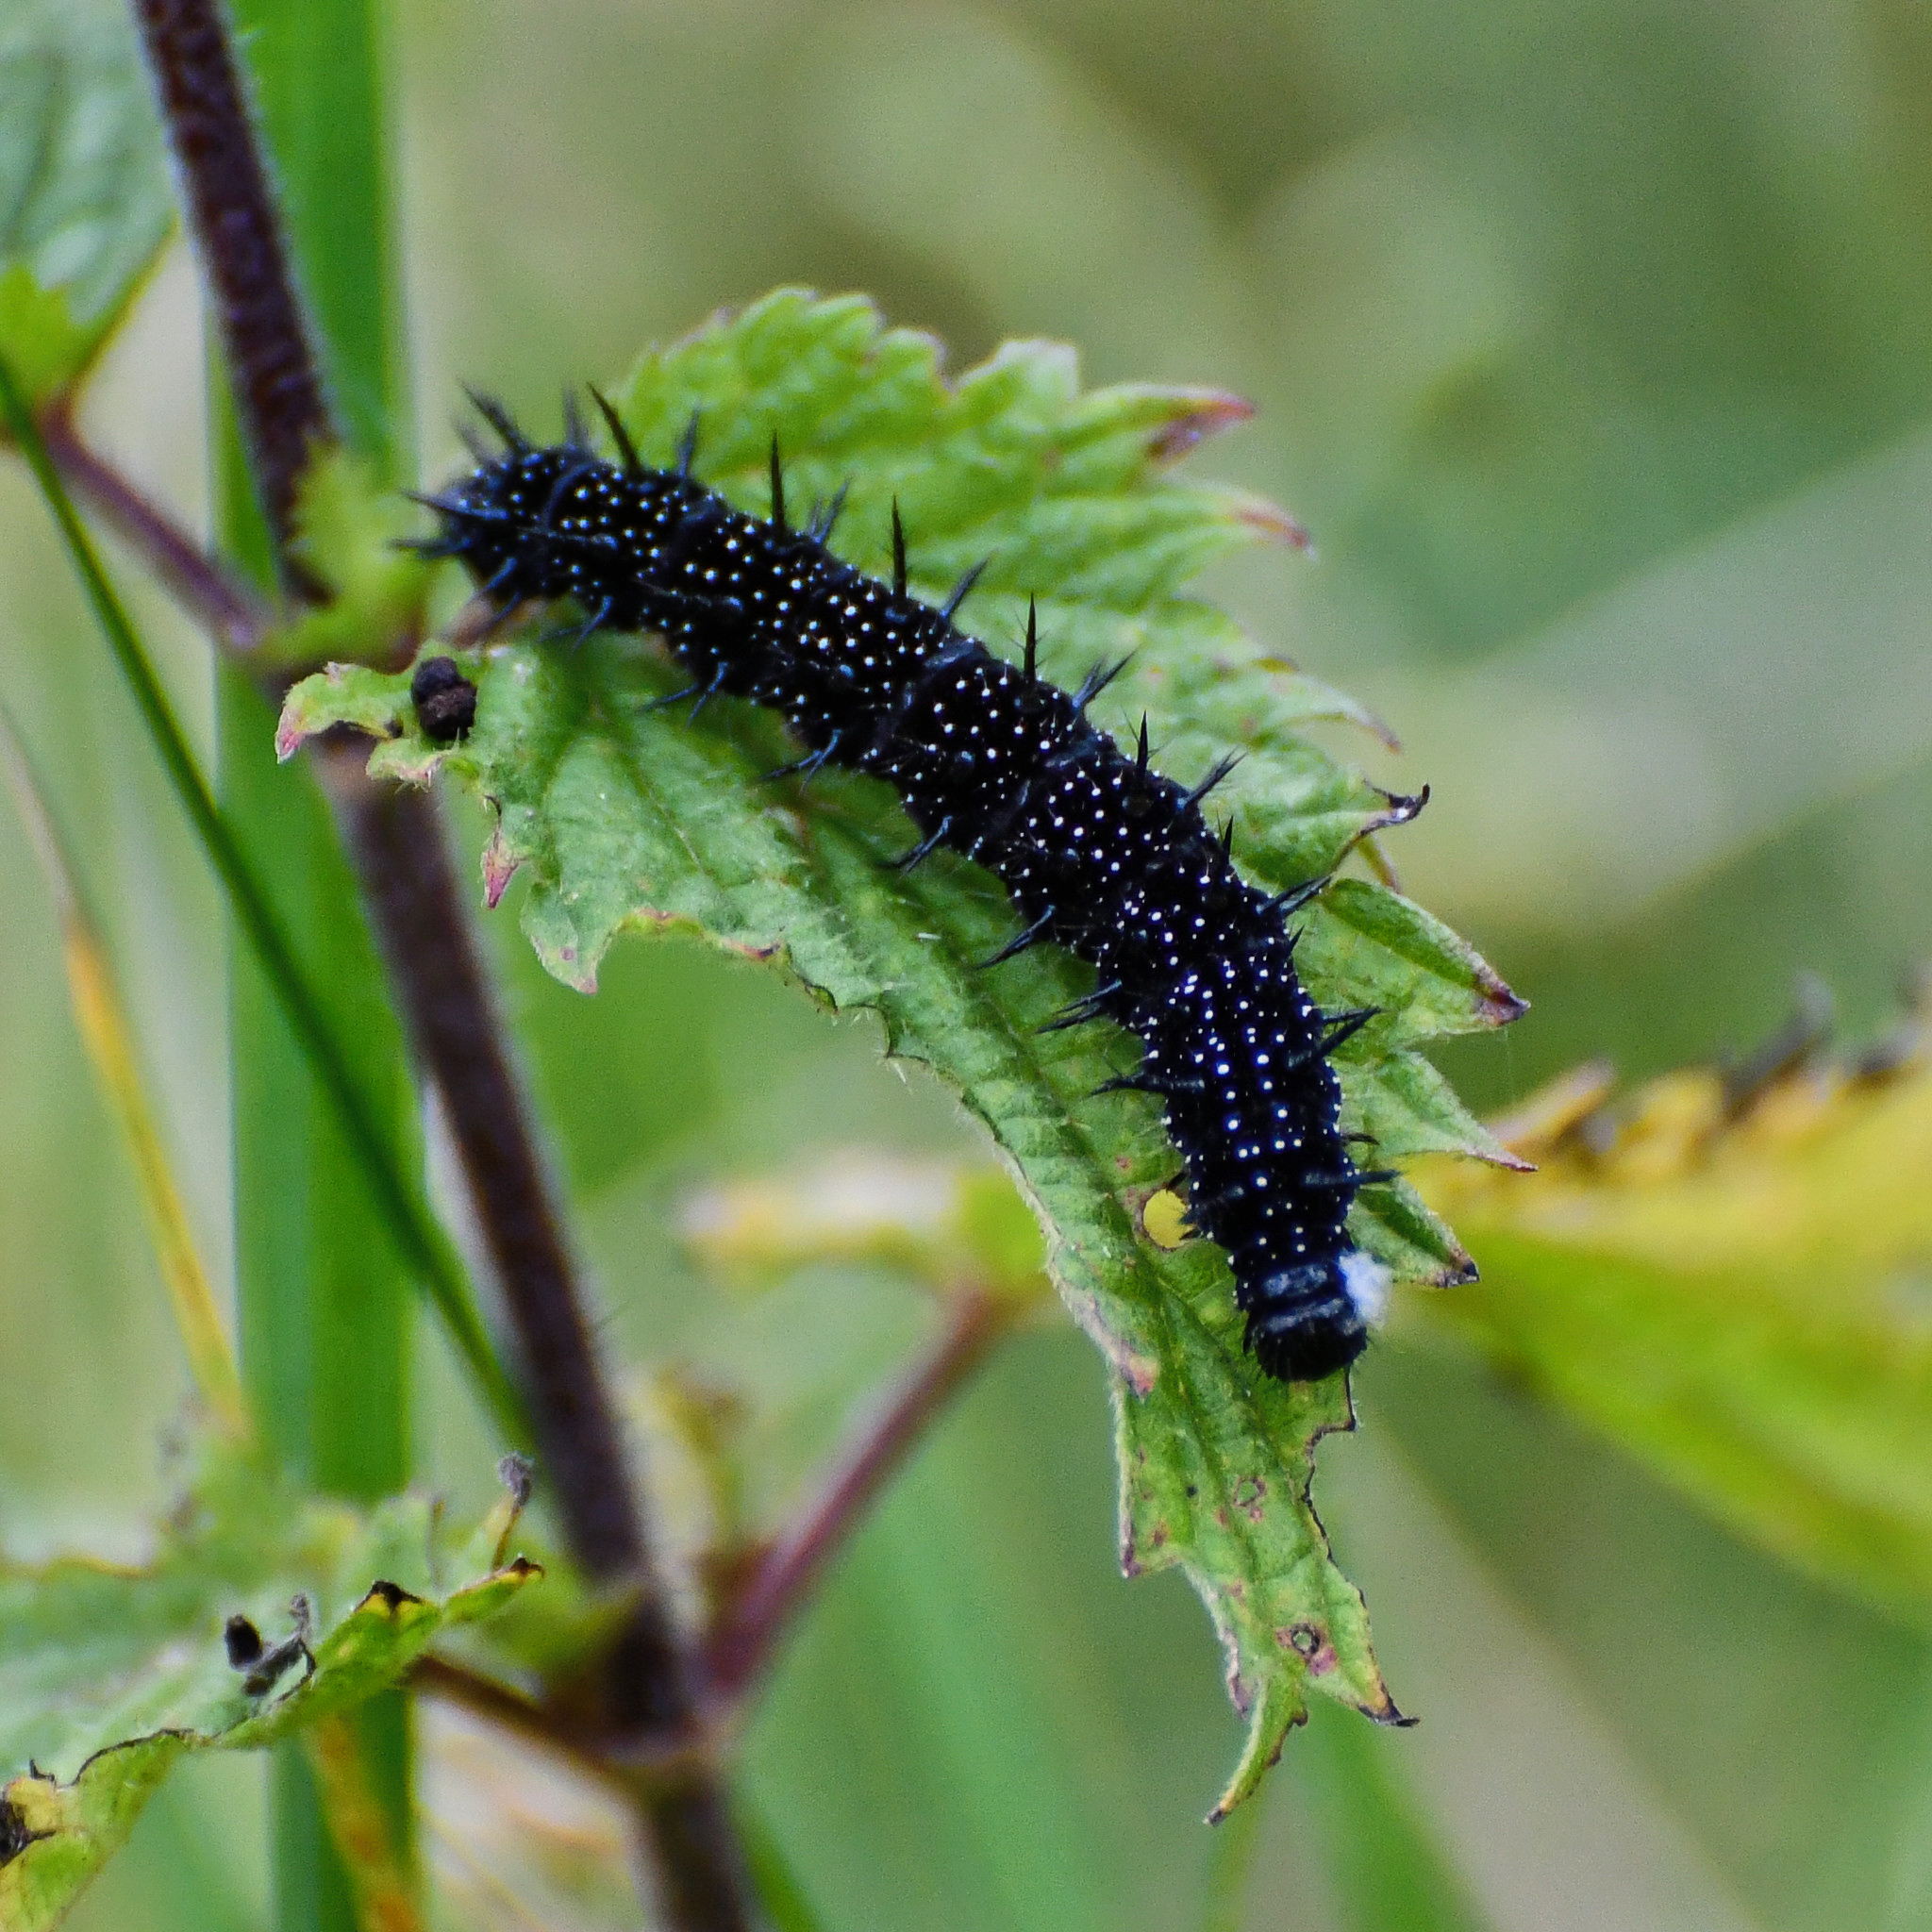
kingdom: Animalia
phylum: Arthropoda
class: Insecta
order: Lepidoptera
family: Nymphalidae
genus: Aglais
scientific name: Aglais io
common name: Peacock
